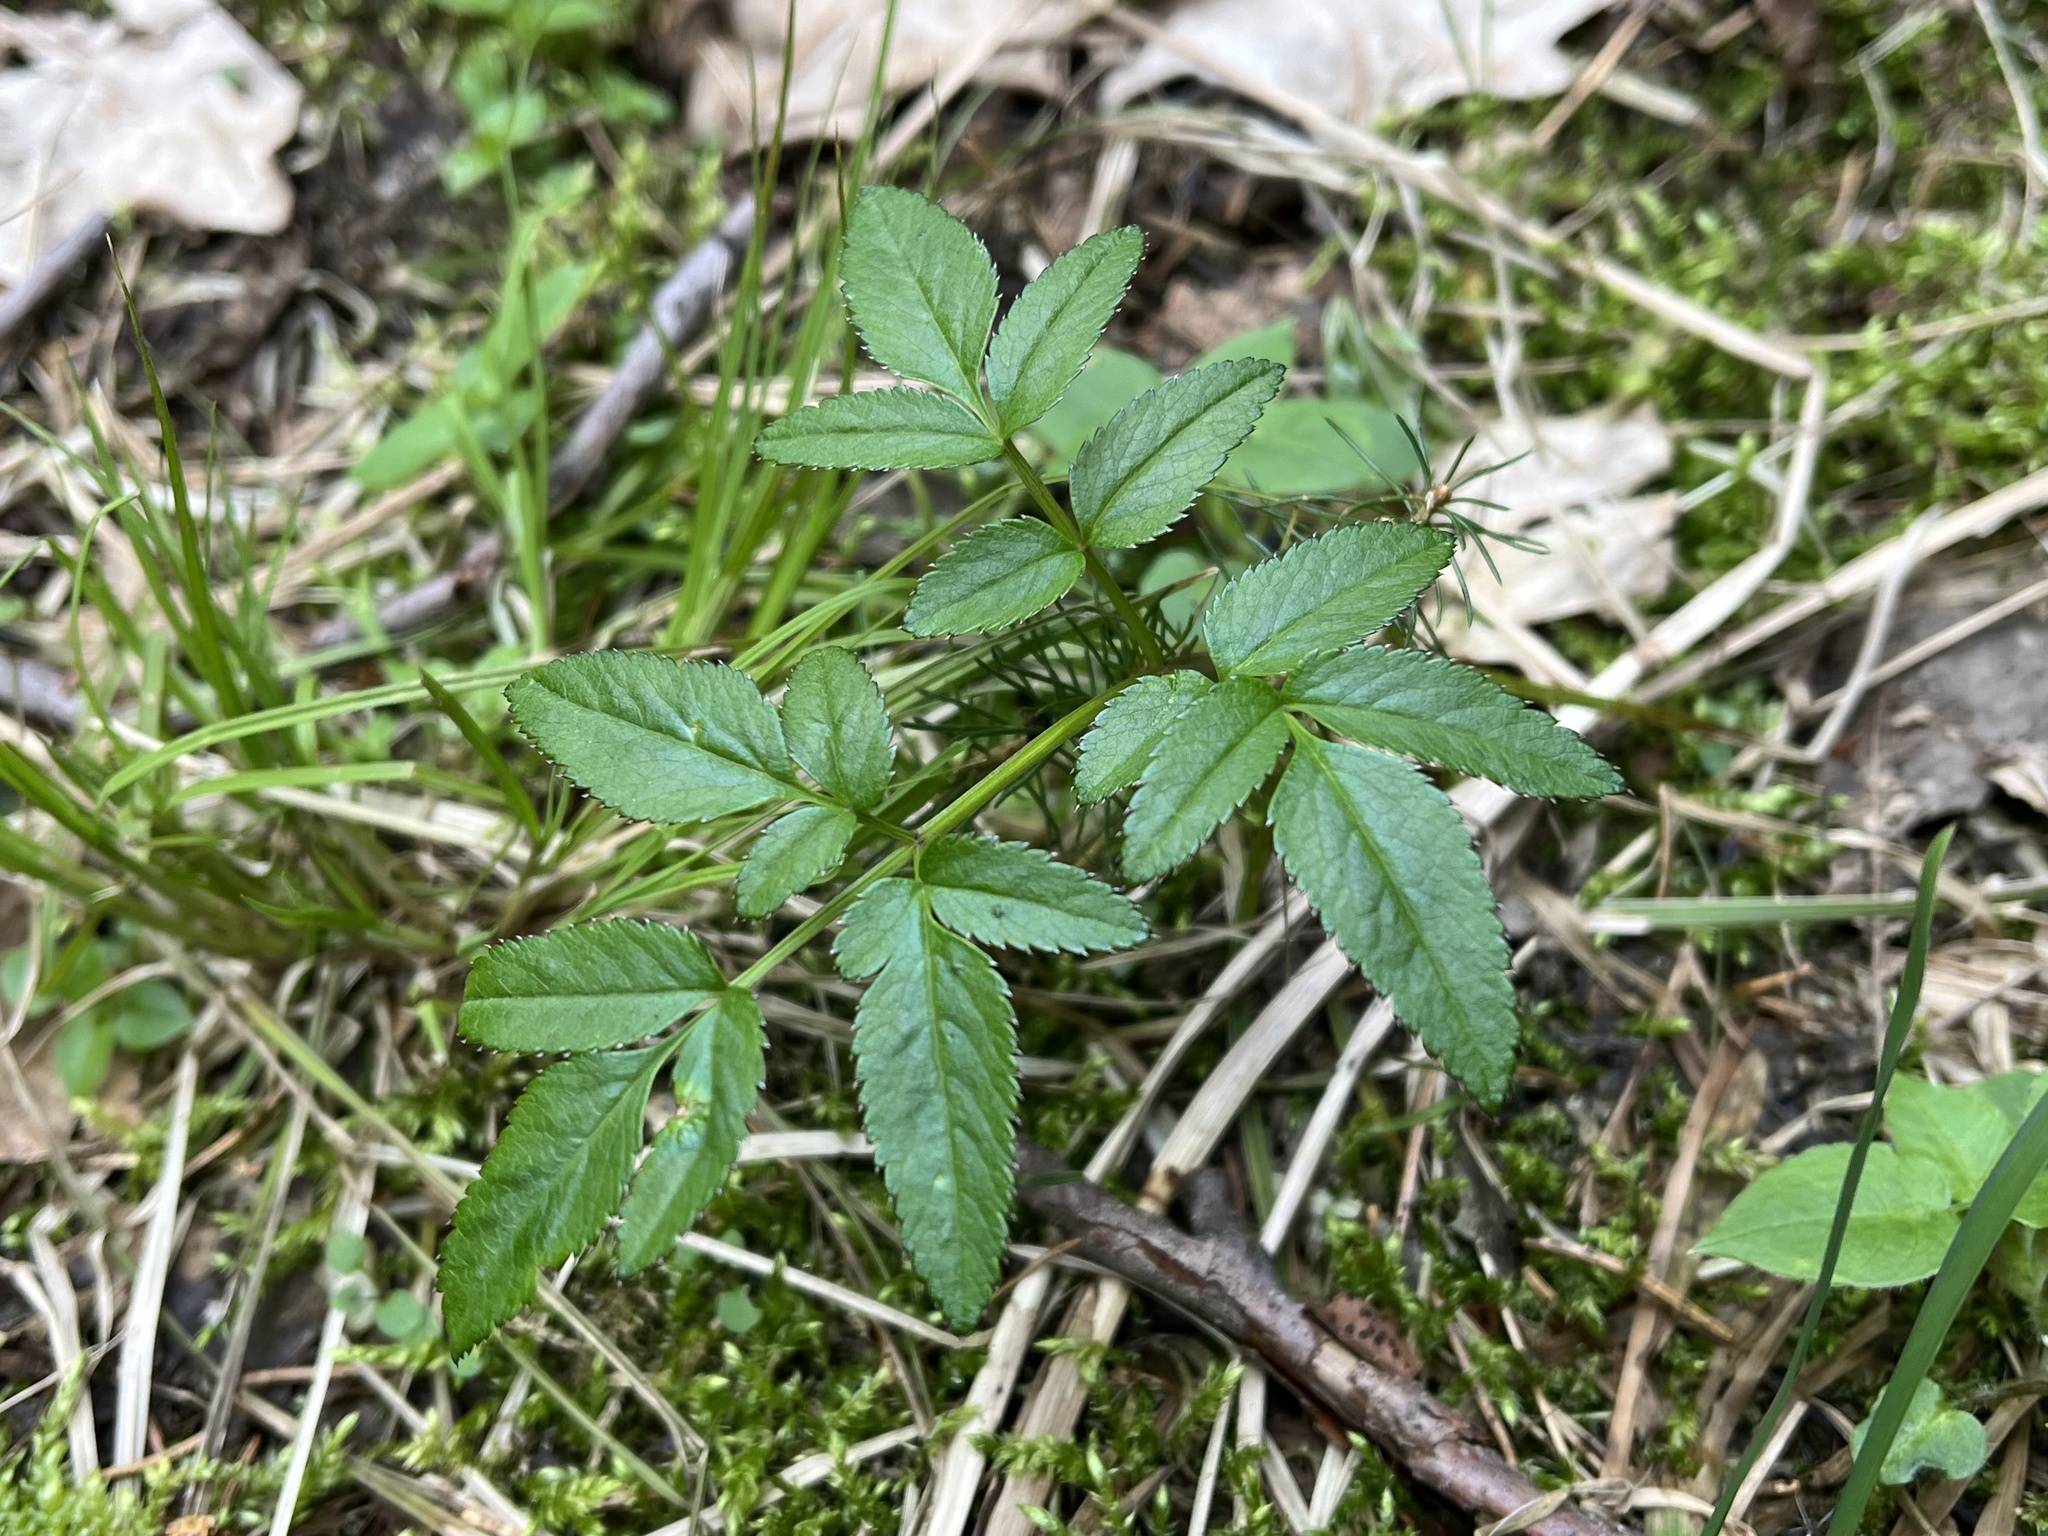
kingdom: Plantae
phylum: Tracheophyta
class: Magnoliopsida
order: Apiales
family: Apiaceae
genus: Angelica
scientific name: Angelica sylvestris
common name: Wild angelica
